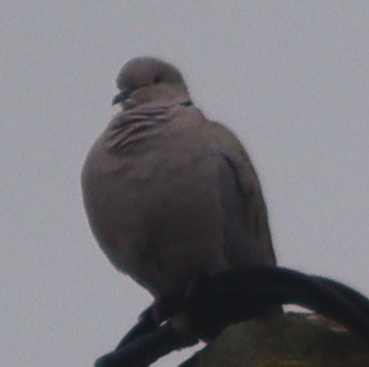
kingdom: Animalia
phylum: Chordata
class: Aves
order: Columbiformes
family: Columbidae
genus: Streptopelia
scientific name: Streptopelia decaocto
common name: Eurasian collared dove
